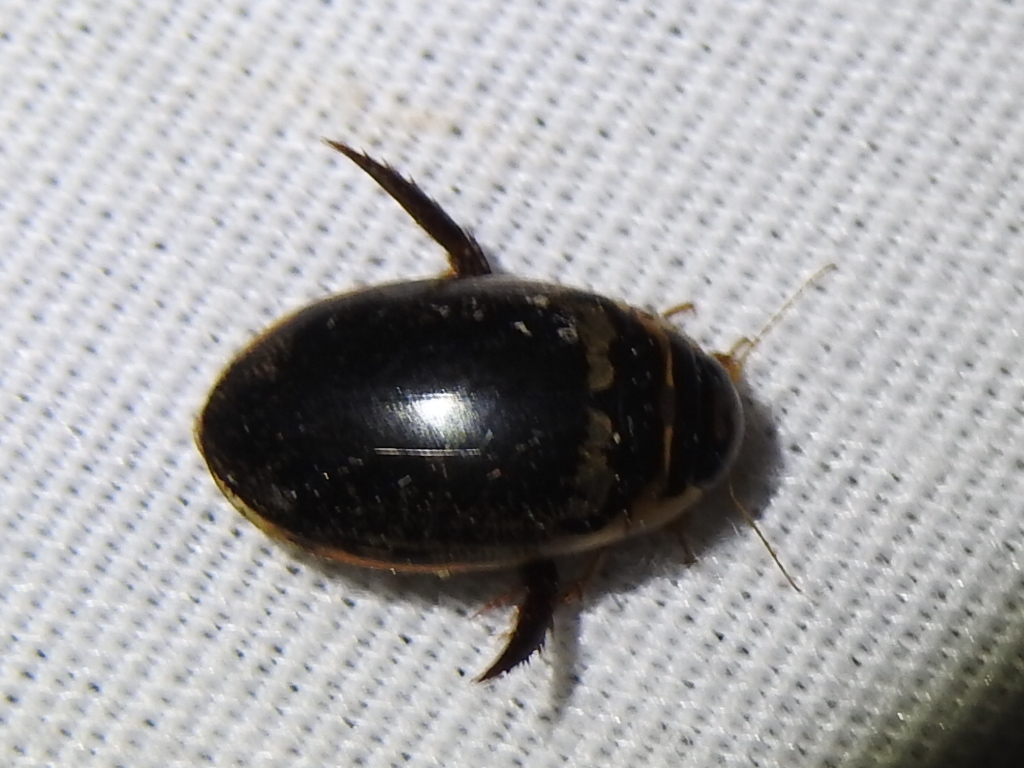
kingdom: Animalia
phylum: Arthropoda
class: Insecta
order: Coleoptera
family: Dytiscidae
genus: Thermonectus
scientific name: Thermonectus basillaris
